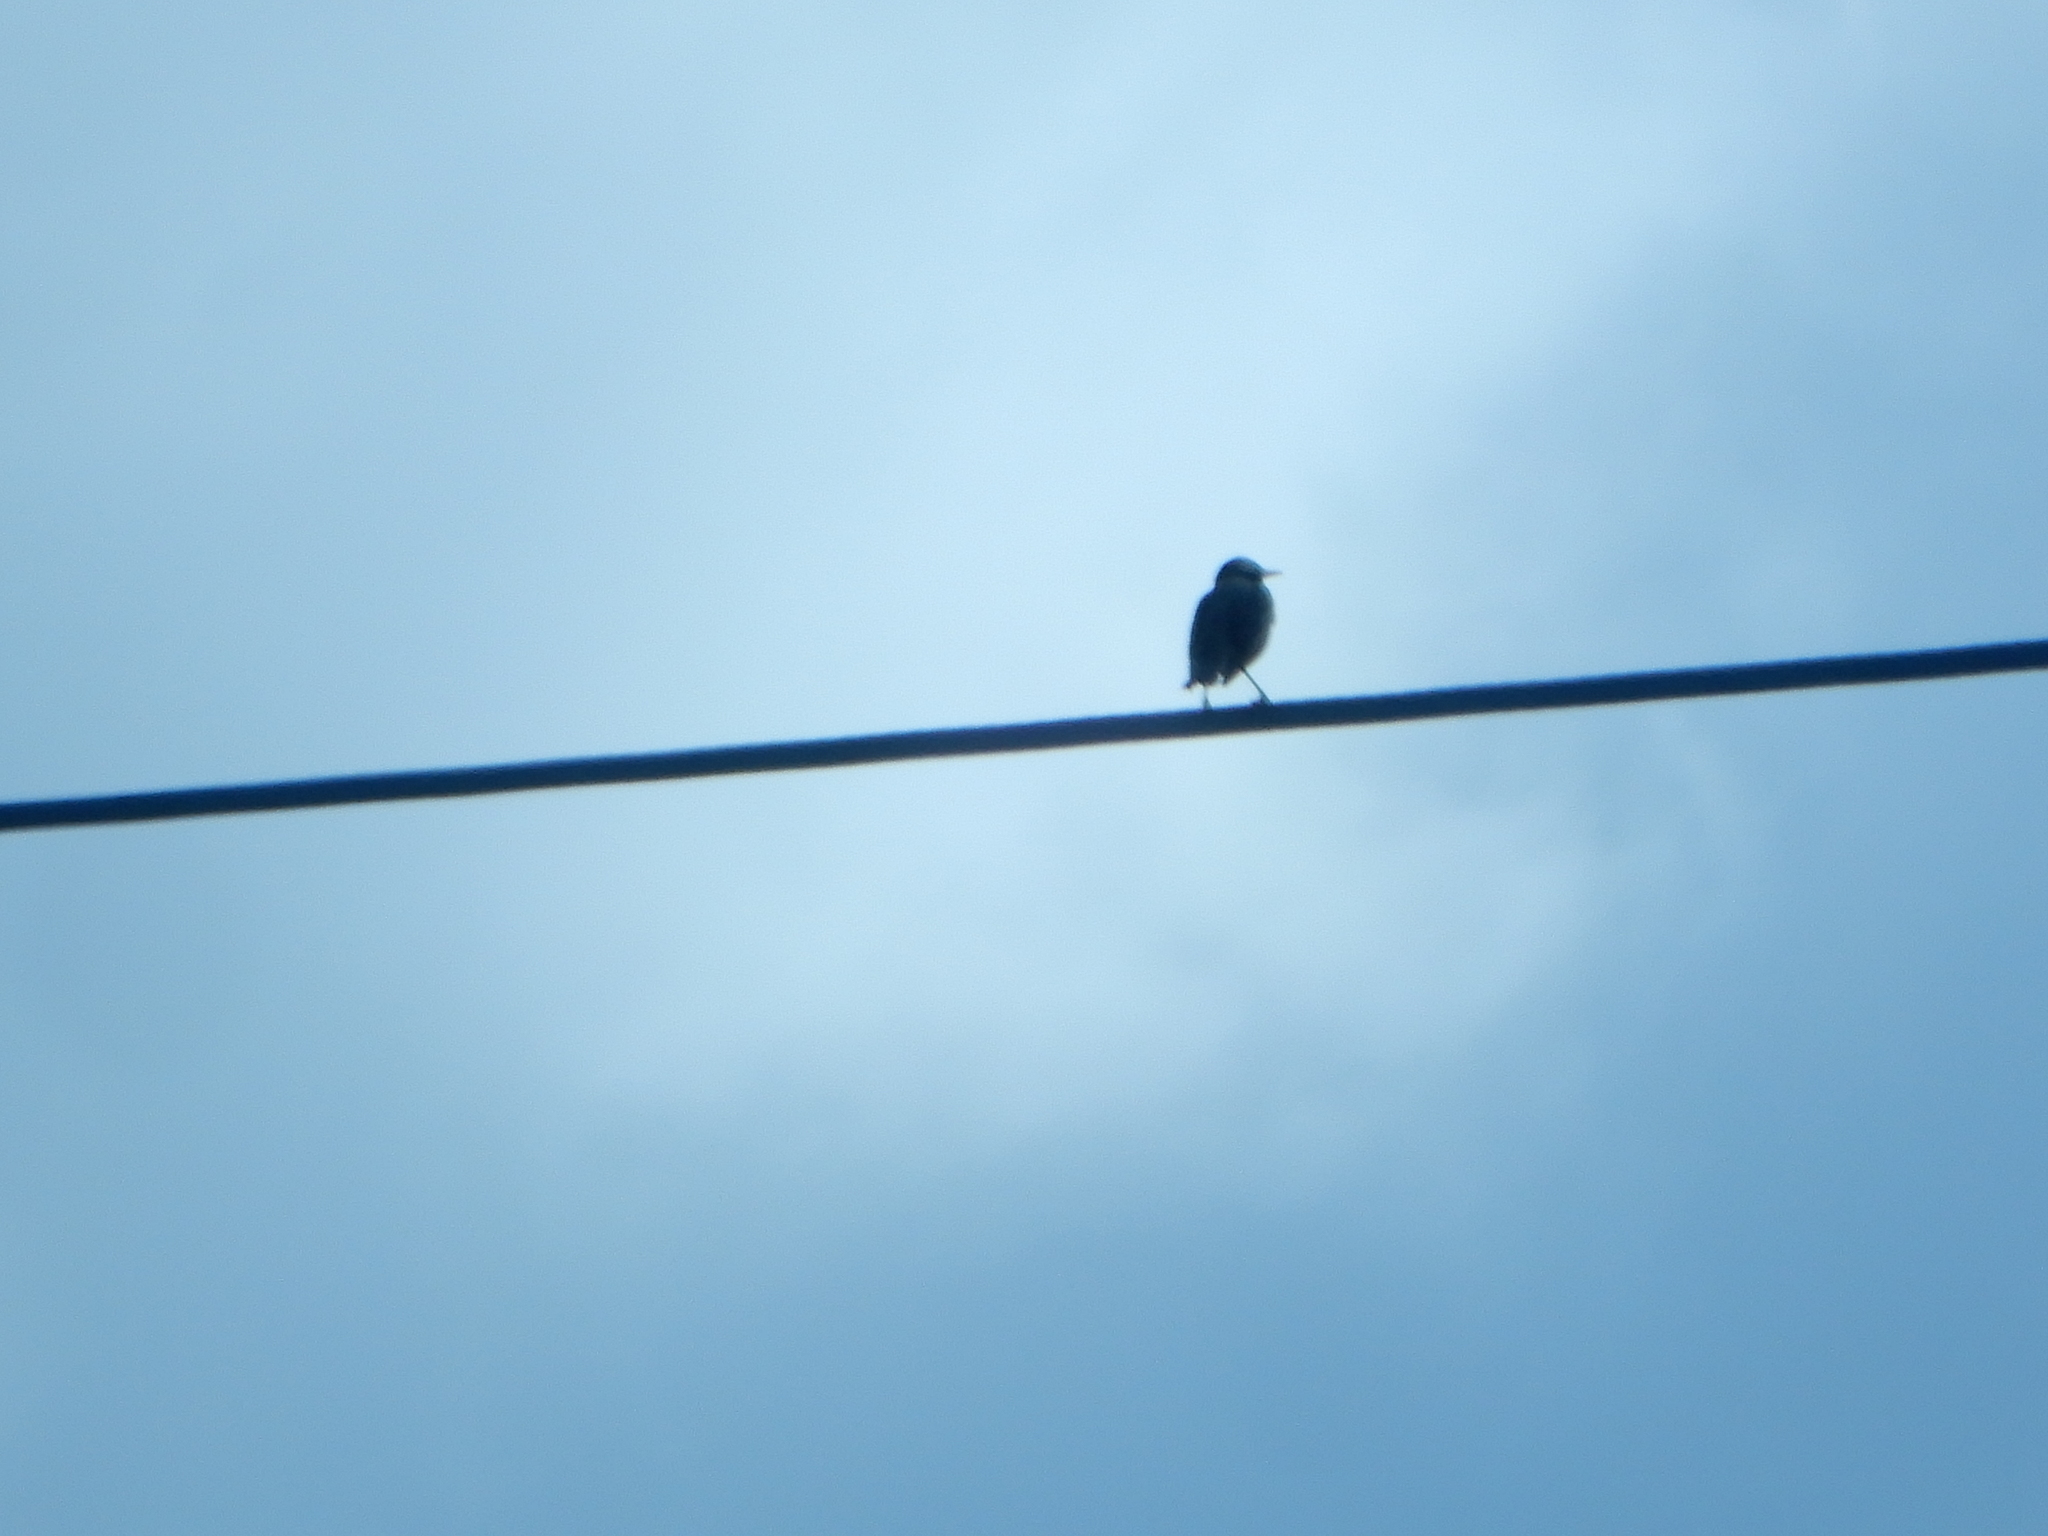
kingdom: Animalia
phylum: Chordata
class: Aves
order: Passeriformes
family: Sturnidae
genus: Sturnus
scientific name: Sturnus vulgaris
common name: Common starling
